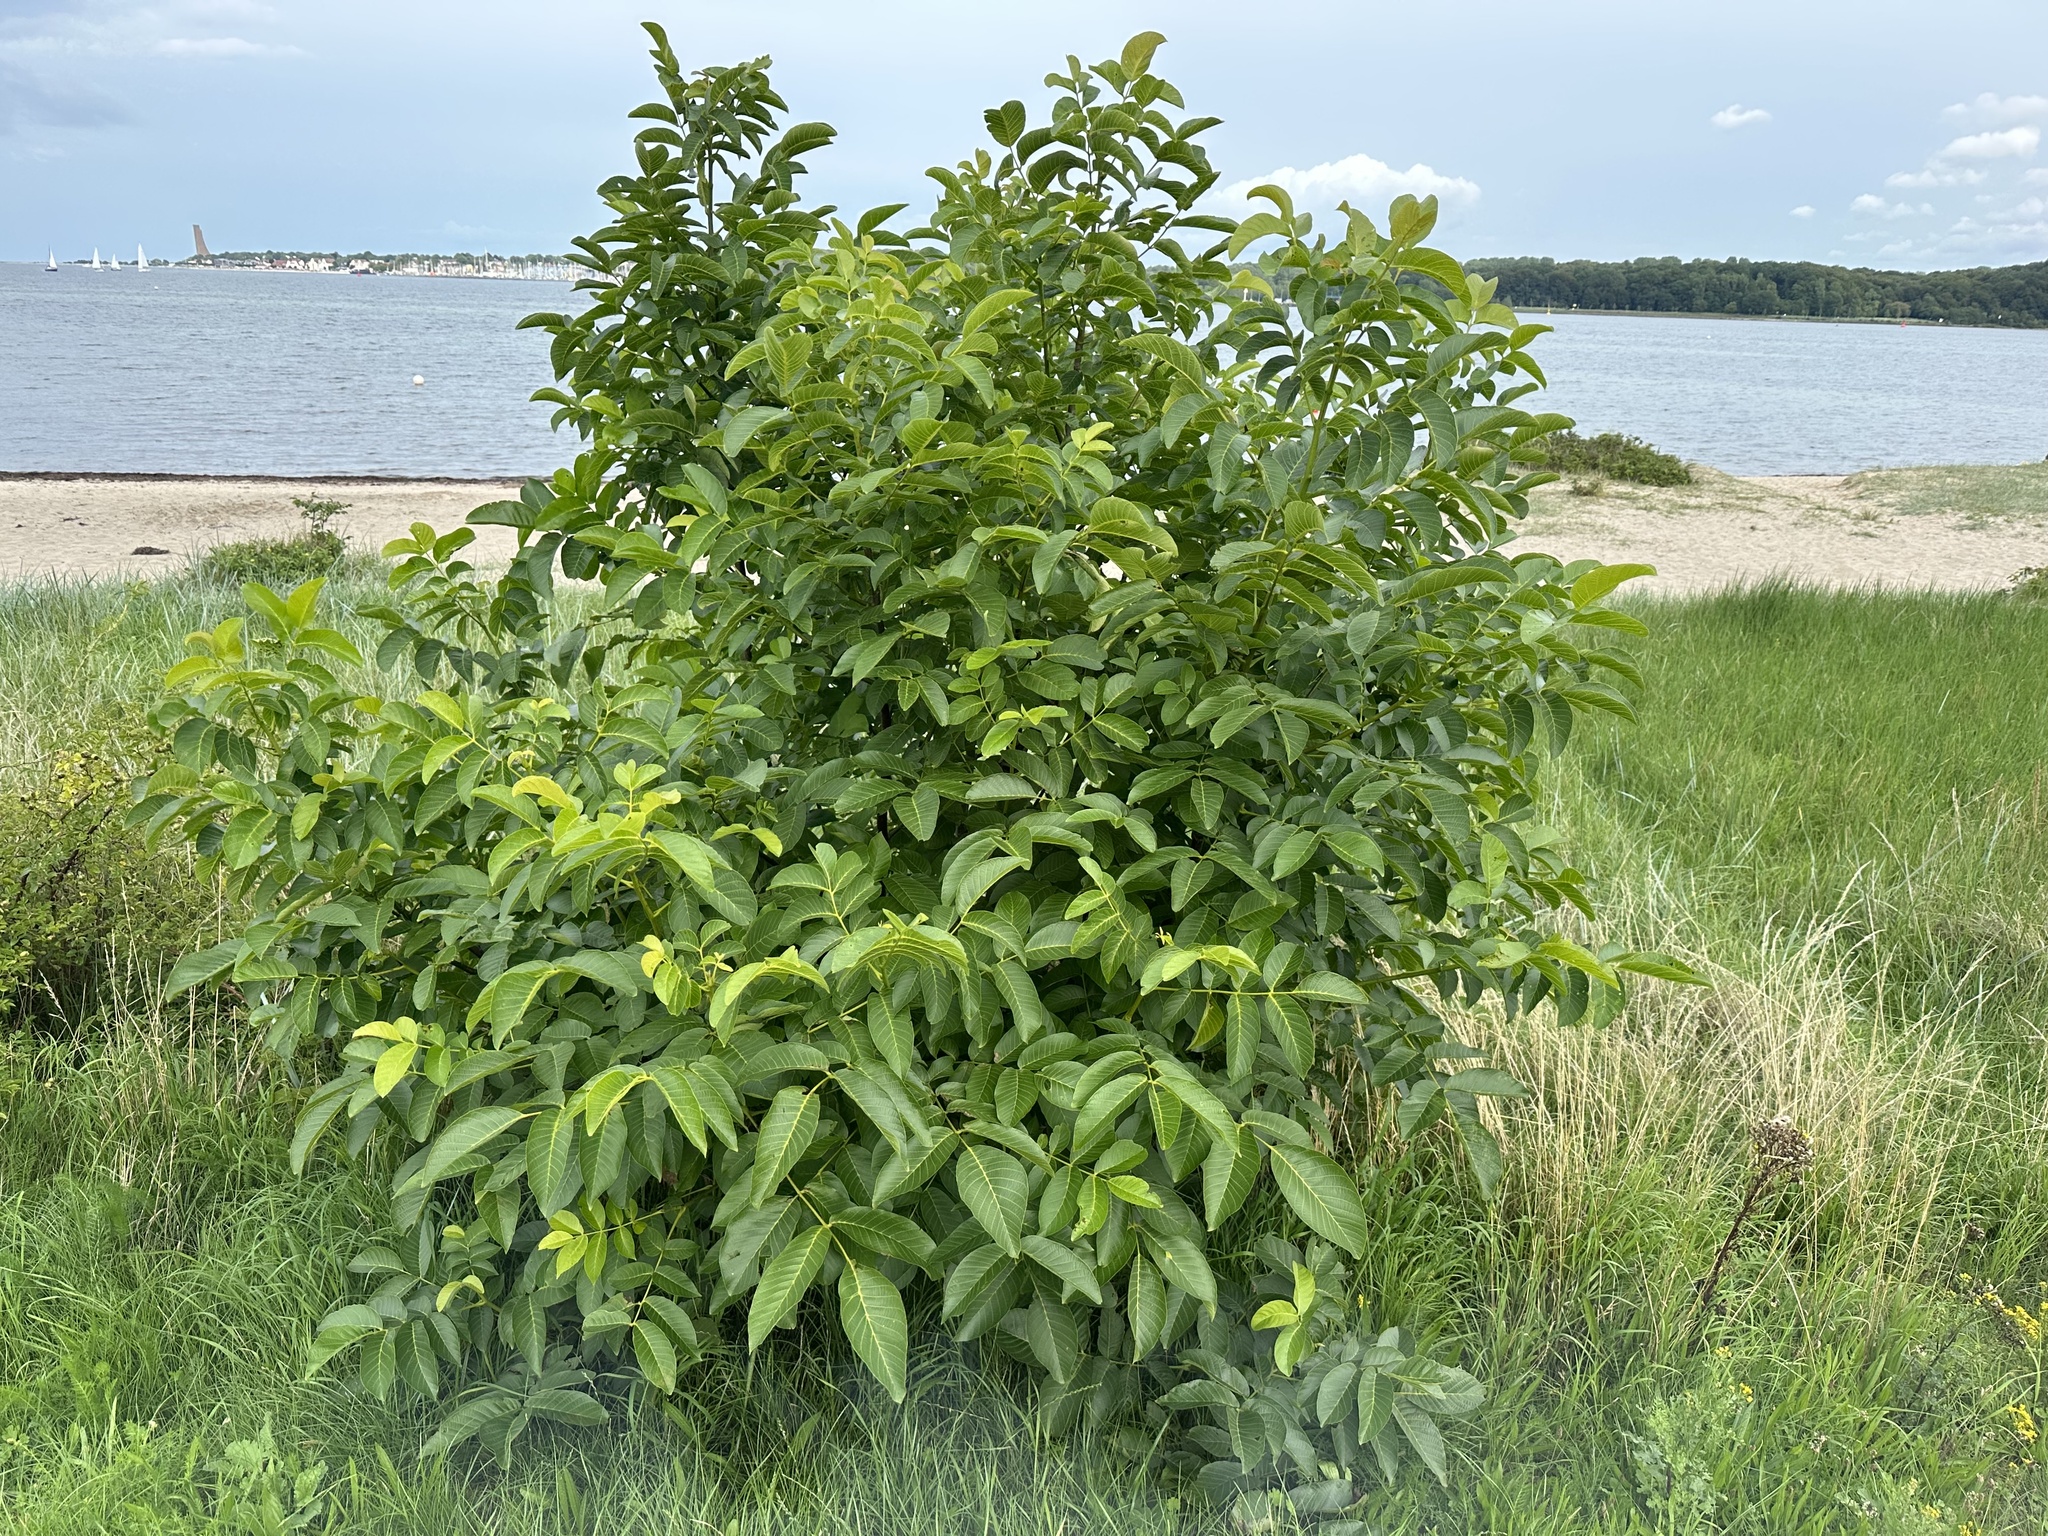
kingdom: Plantae
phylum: Tracheophyta
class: Magnoliopsida
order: Fagales
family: Juglandaceae
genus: Juglans
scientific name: Juglans regia
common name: Walnut
